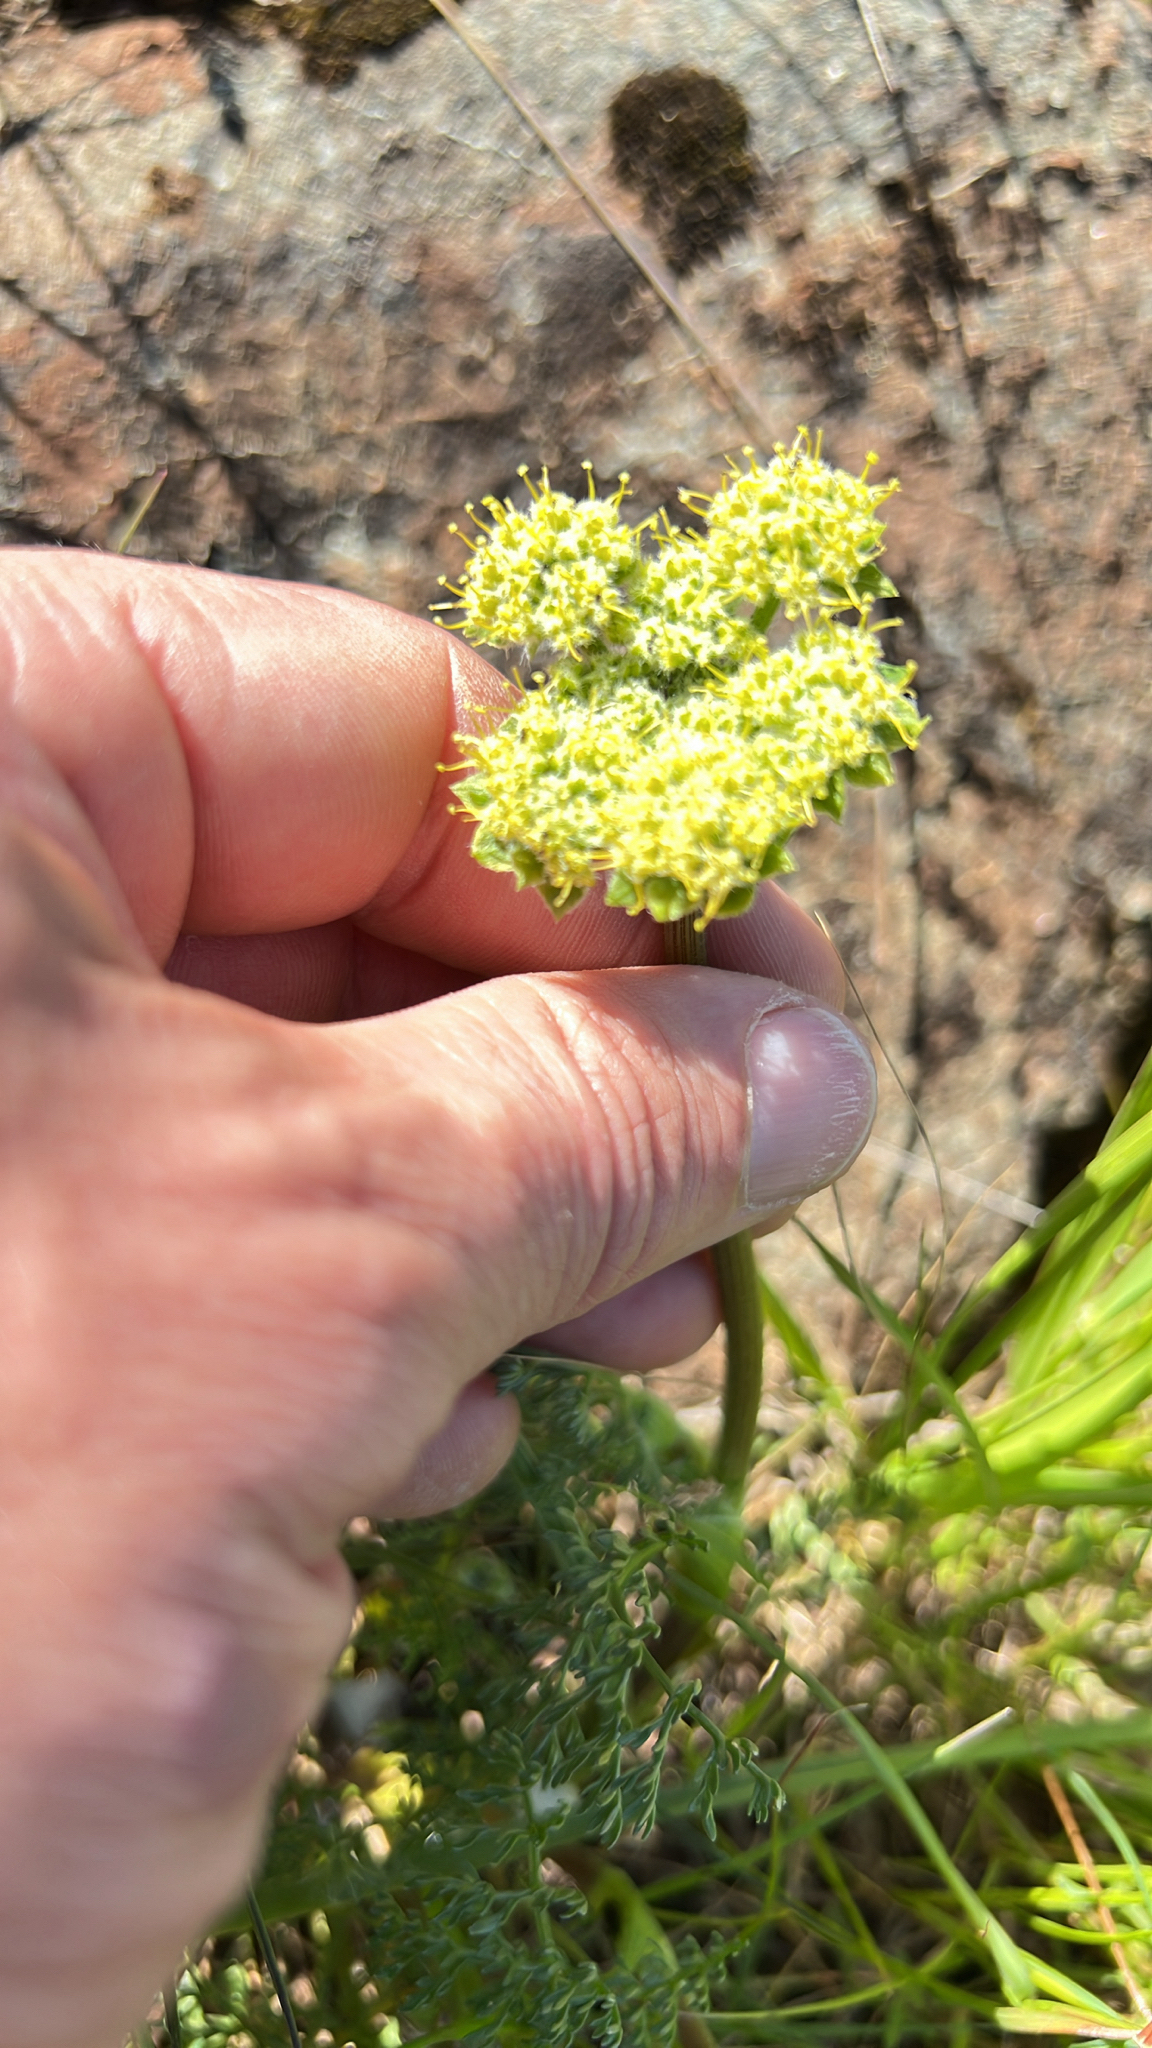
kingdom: Plantae
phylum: Tracheophyta
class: Magnoliopsida
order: Apiales
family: Apiaceae
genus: Lomatium
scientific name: Lomatium dasycarpum
